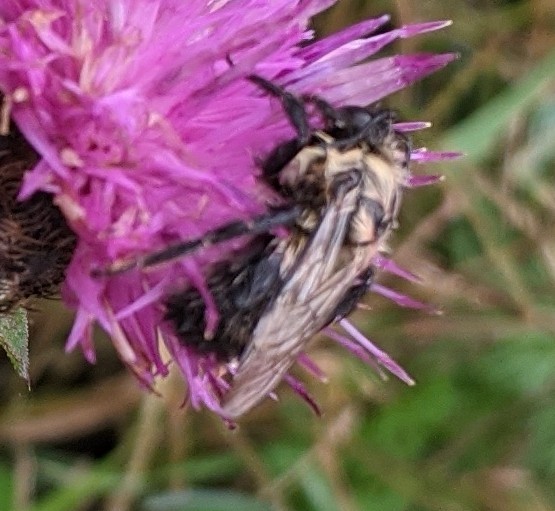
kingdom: Animalia
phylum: Arthropoda
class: Insecta
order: Hymenoptera
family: Apidae
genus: Bombus
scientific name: Bombus impatiens
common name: Common eastern bumble bee
